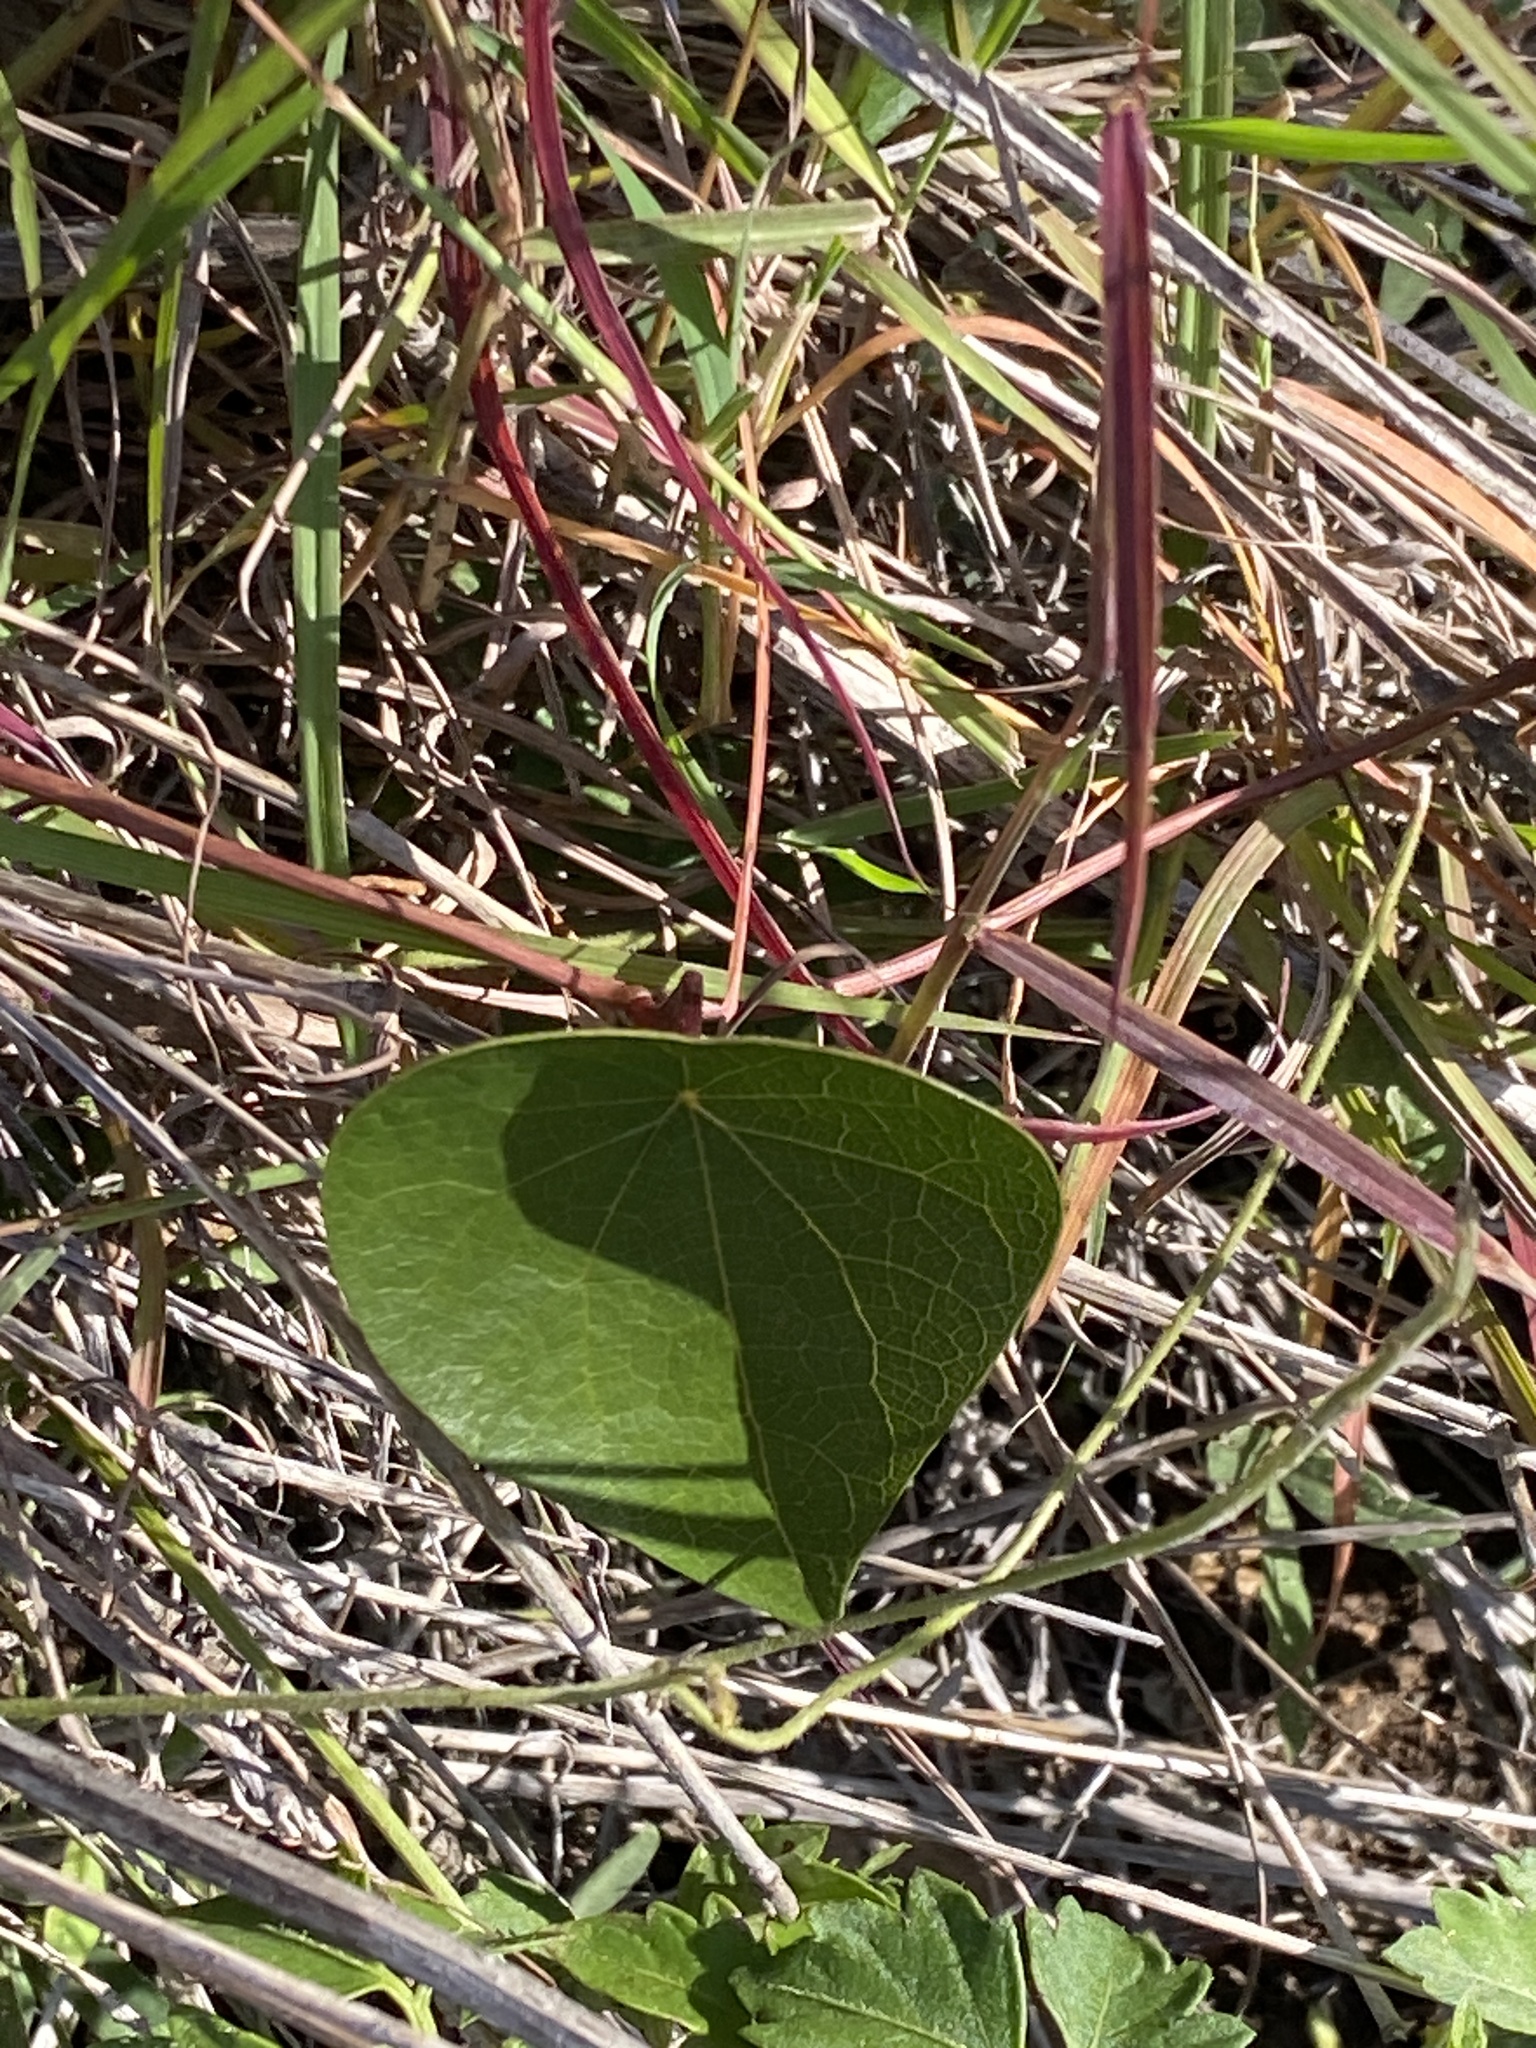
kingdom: Plantae
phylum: Tracheophyta
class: Magnoliopsida
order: Ranunculales
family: Menispermaceae
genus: Stephania
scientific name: Stephania japonica
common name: Snake vine
